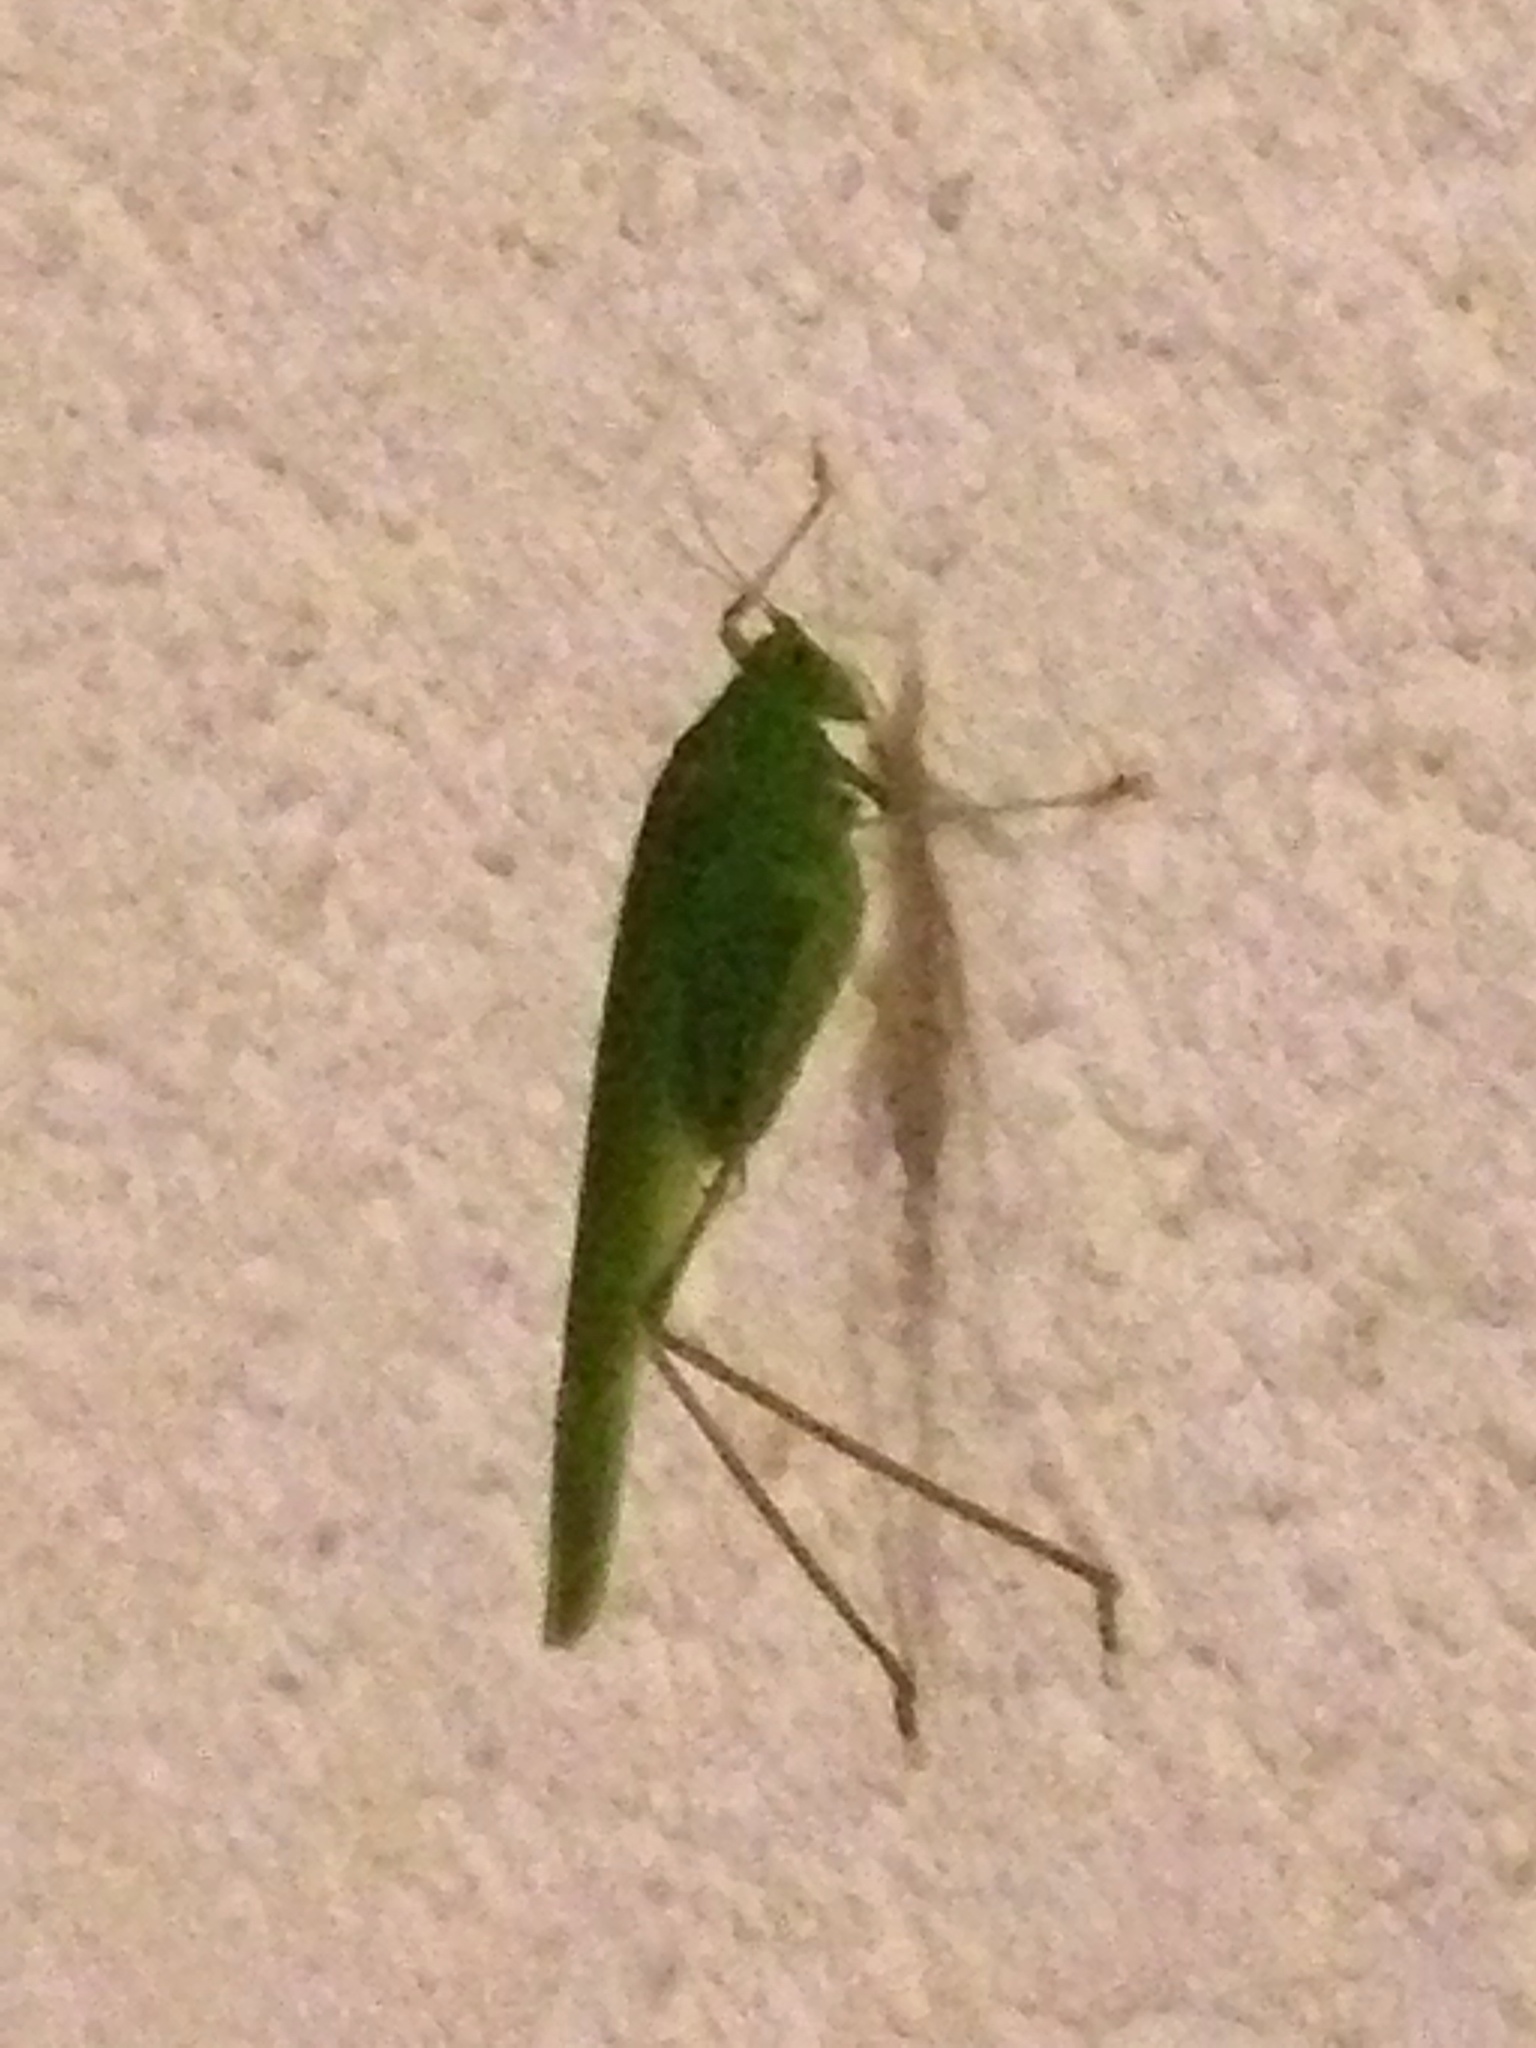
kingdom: Animalia
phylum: Arthropoda
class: Insecta
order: Orthoptera
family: Tettigoniidae
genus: Phaneroptera
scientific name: Phaneroptera nana
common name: Southern sickle bush-cricket
